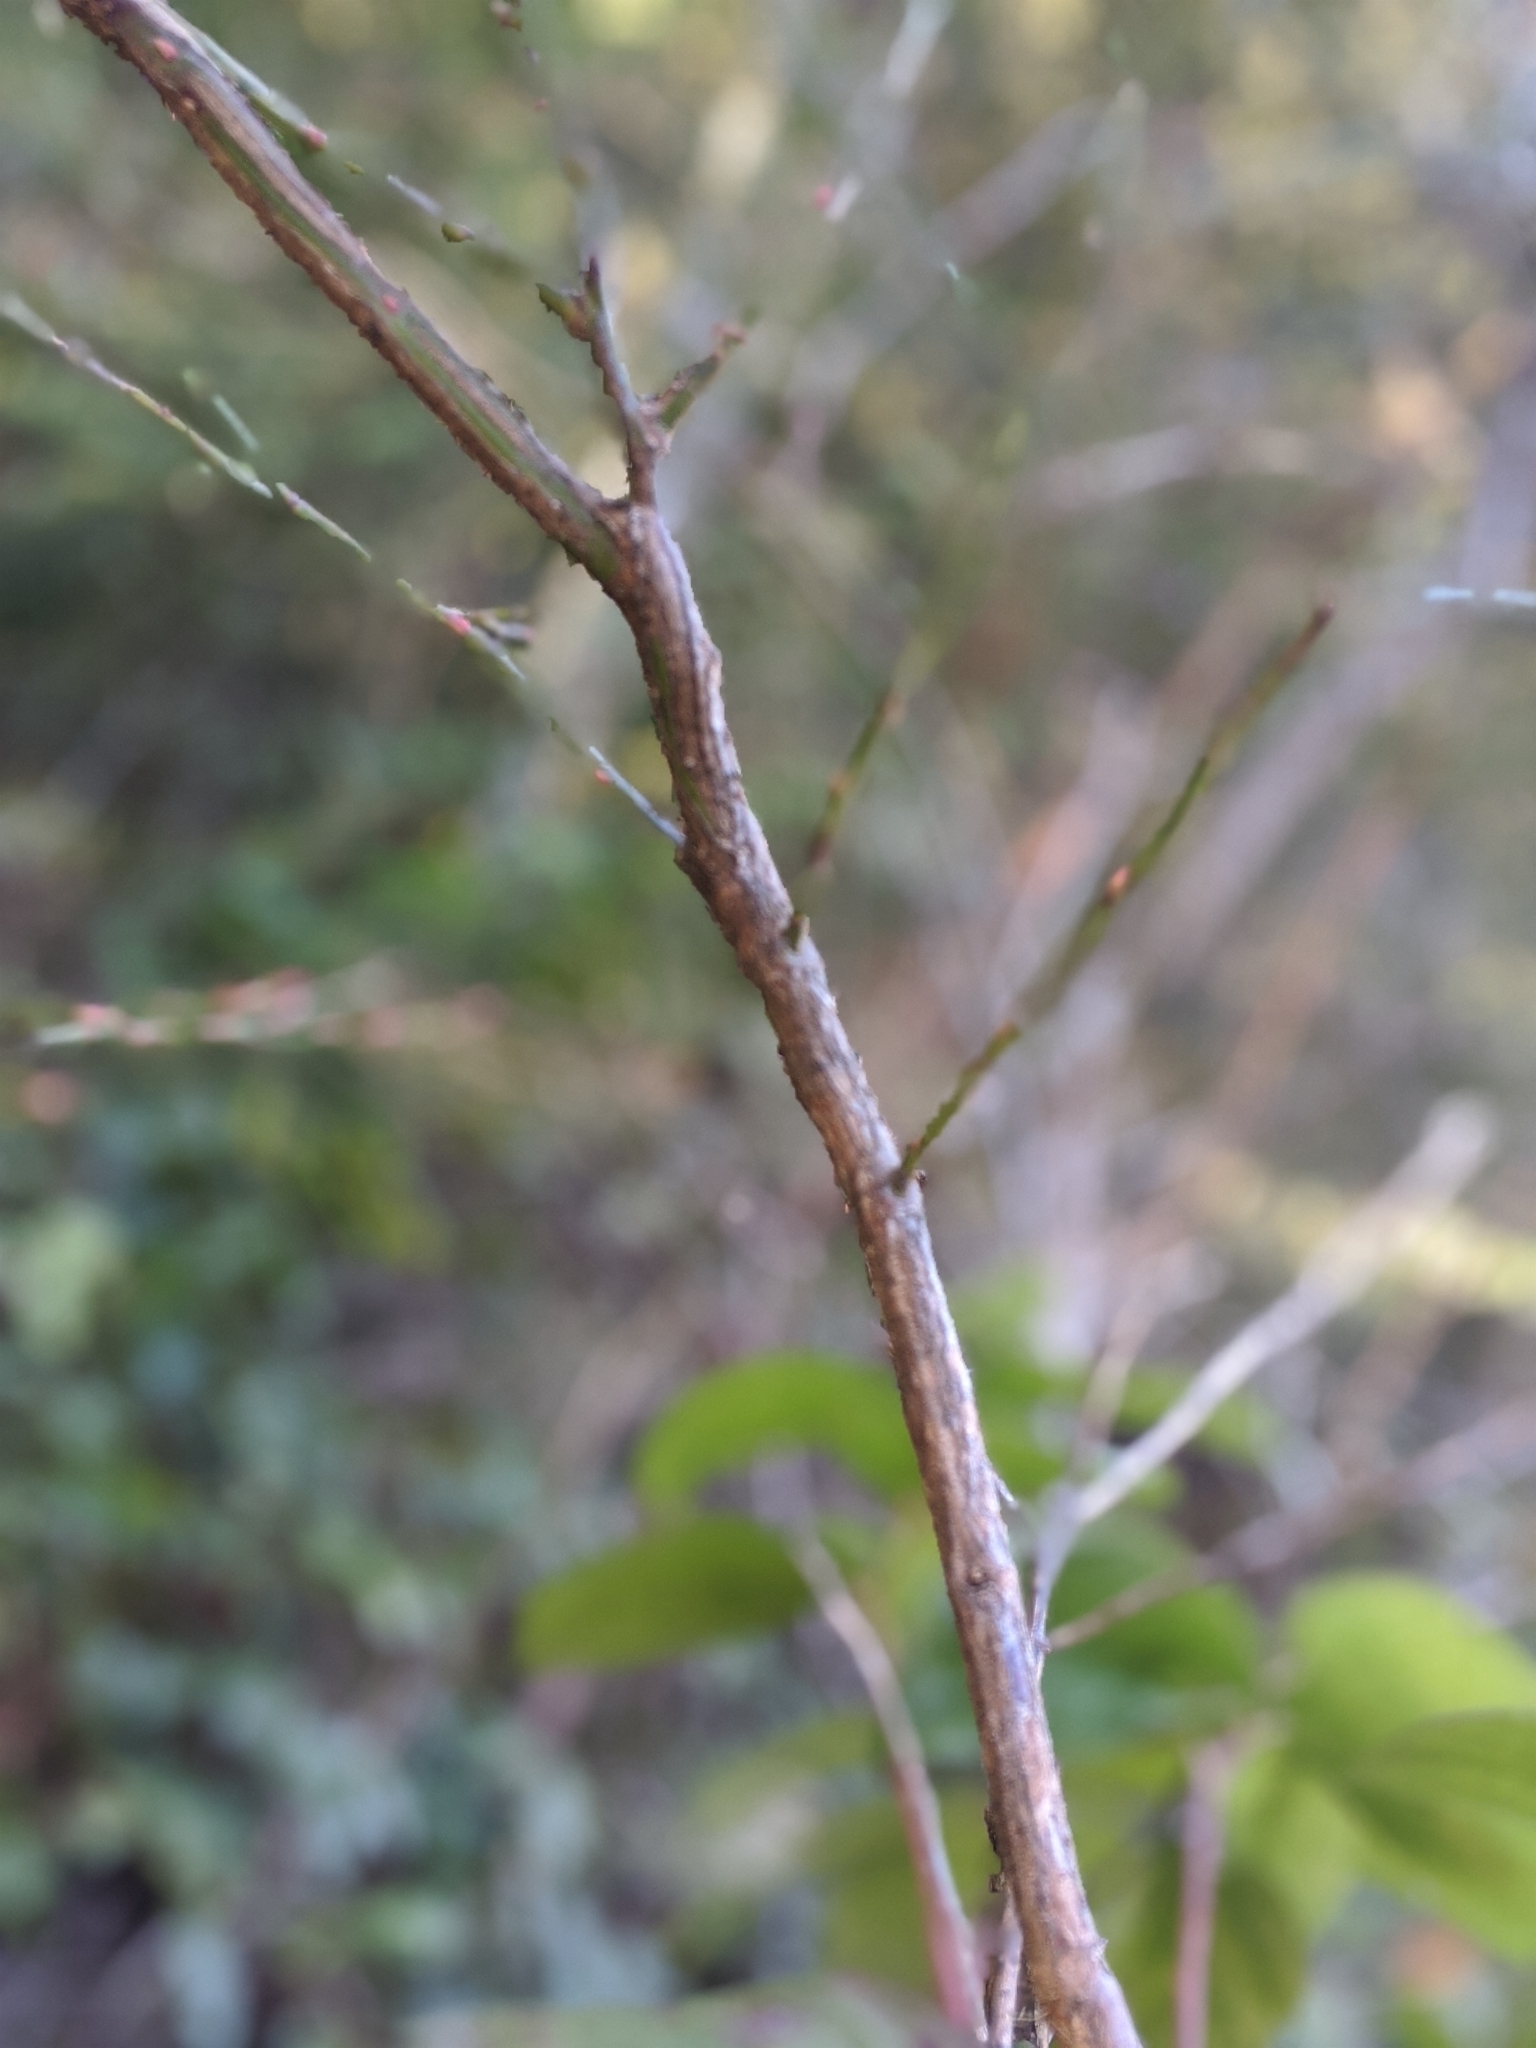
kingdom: Plantae
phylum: Tracheophyta
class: Magnoliopsida
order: Ericales
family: Ericaceae
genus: Vaccinium
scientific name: Vaccinium parvifolium
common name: Red-huckleberry
